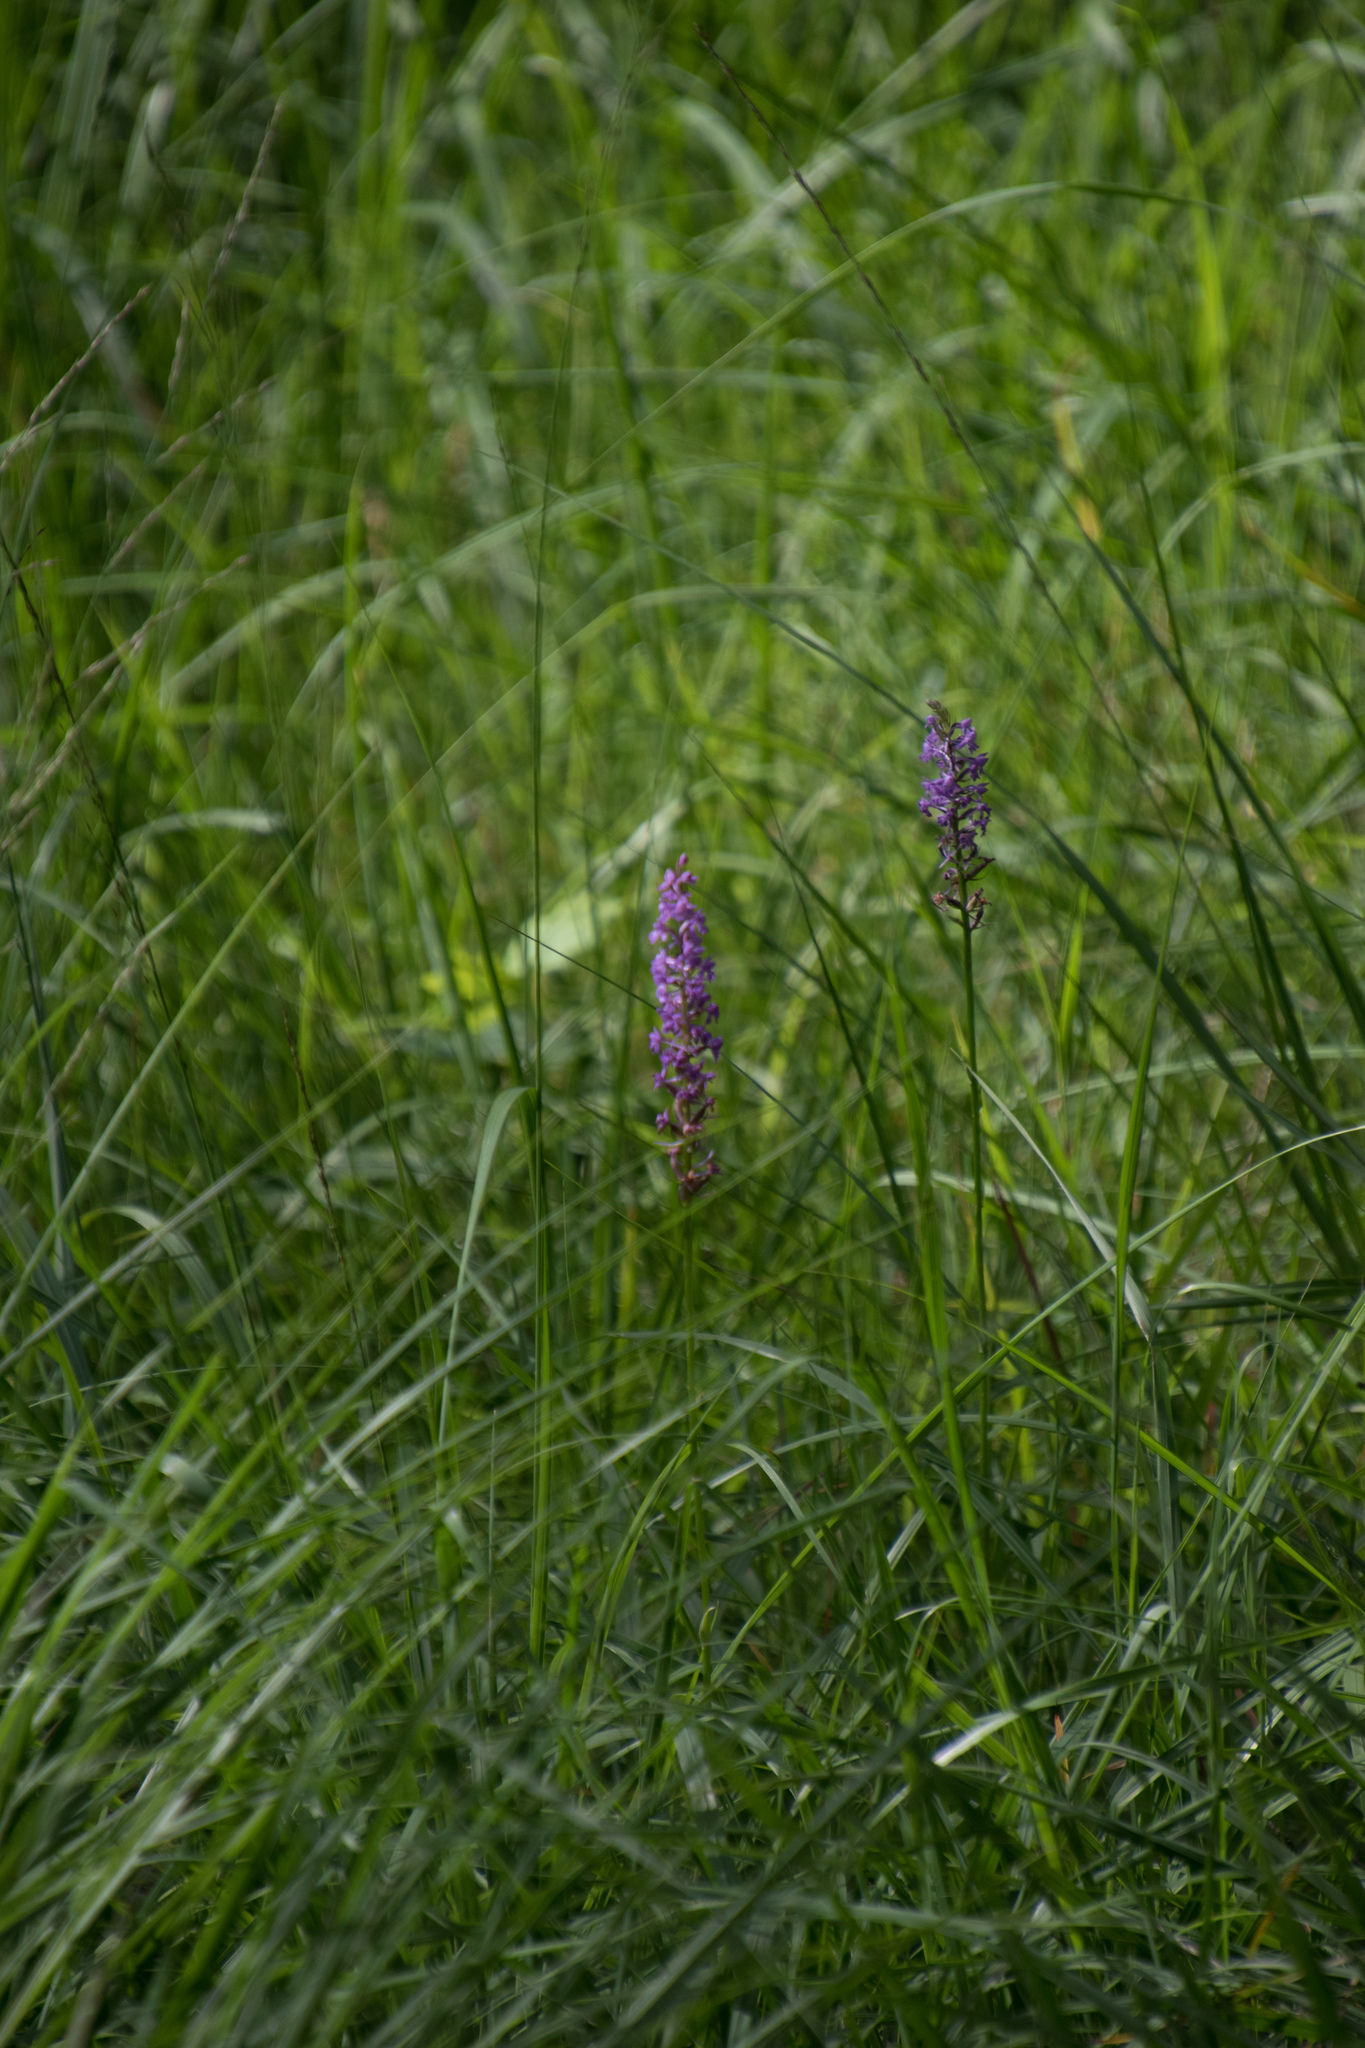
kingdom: Plantae
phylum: Tracheophyta
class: Liliopsida
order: Asparagales
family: Orchidaceae
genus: Gymnadenia
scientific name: Gymnadenia conopsea
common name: Fragrant orchid
